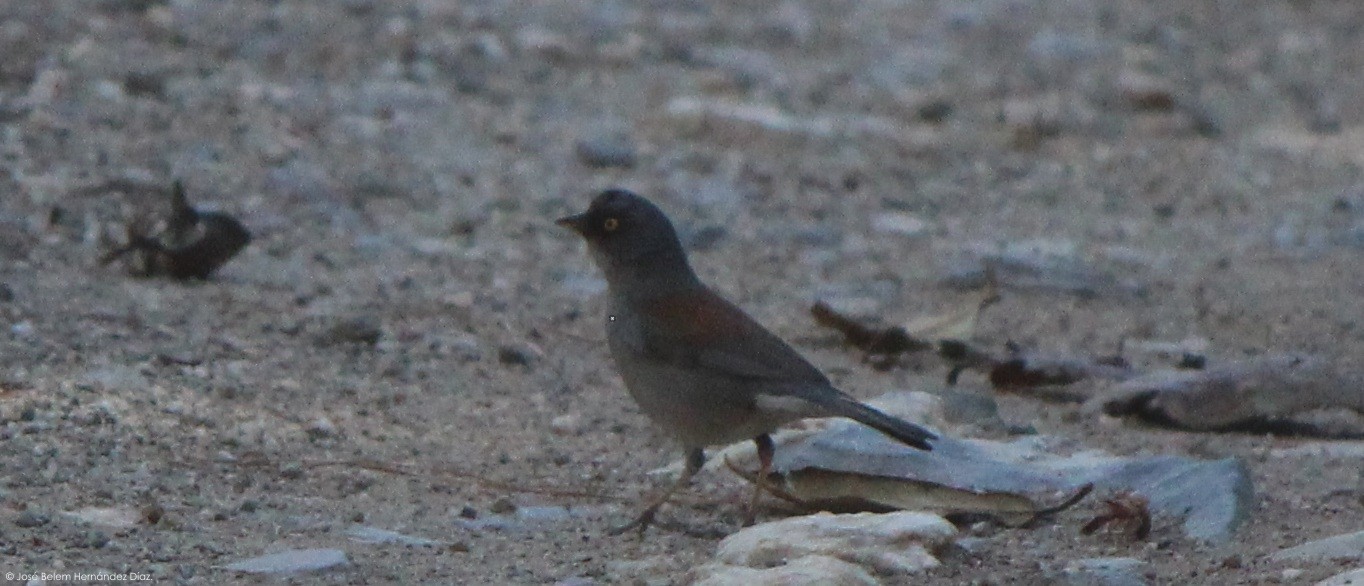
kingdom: Animalia
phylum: Chordata
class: Aves
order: Passeriformes
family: Passerellidae
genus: Junco
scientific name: Junco phaeonotus
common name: Yellow-eyed junco
